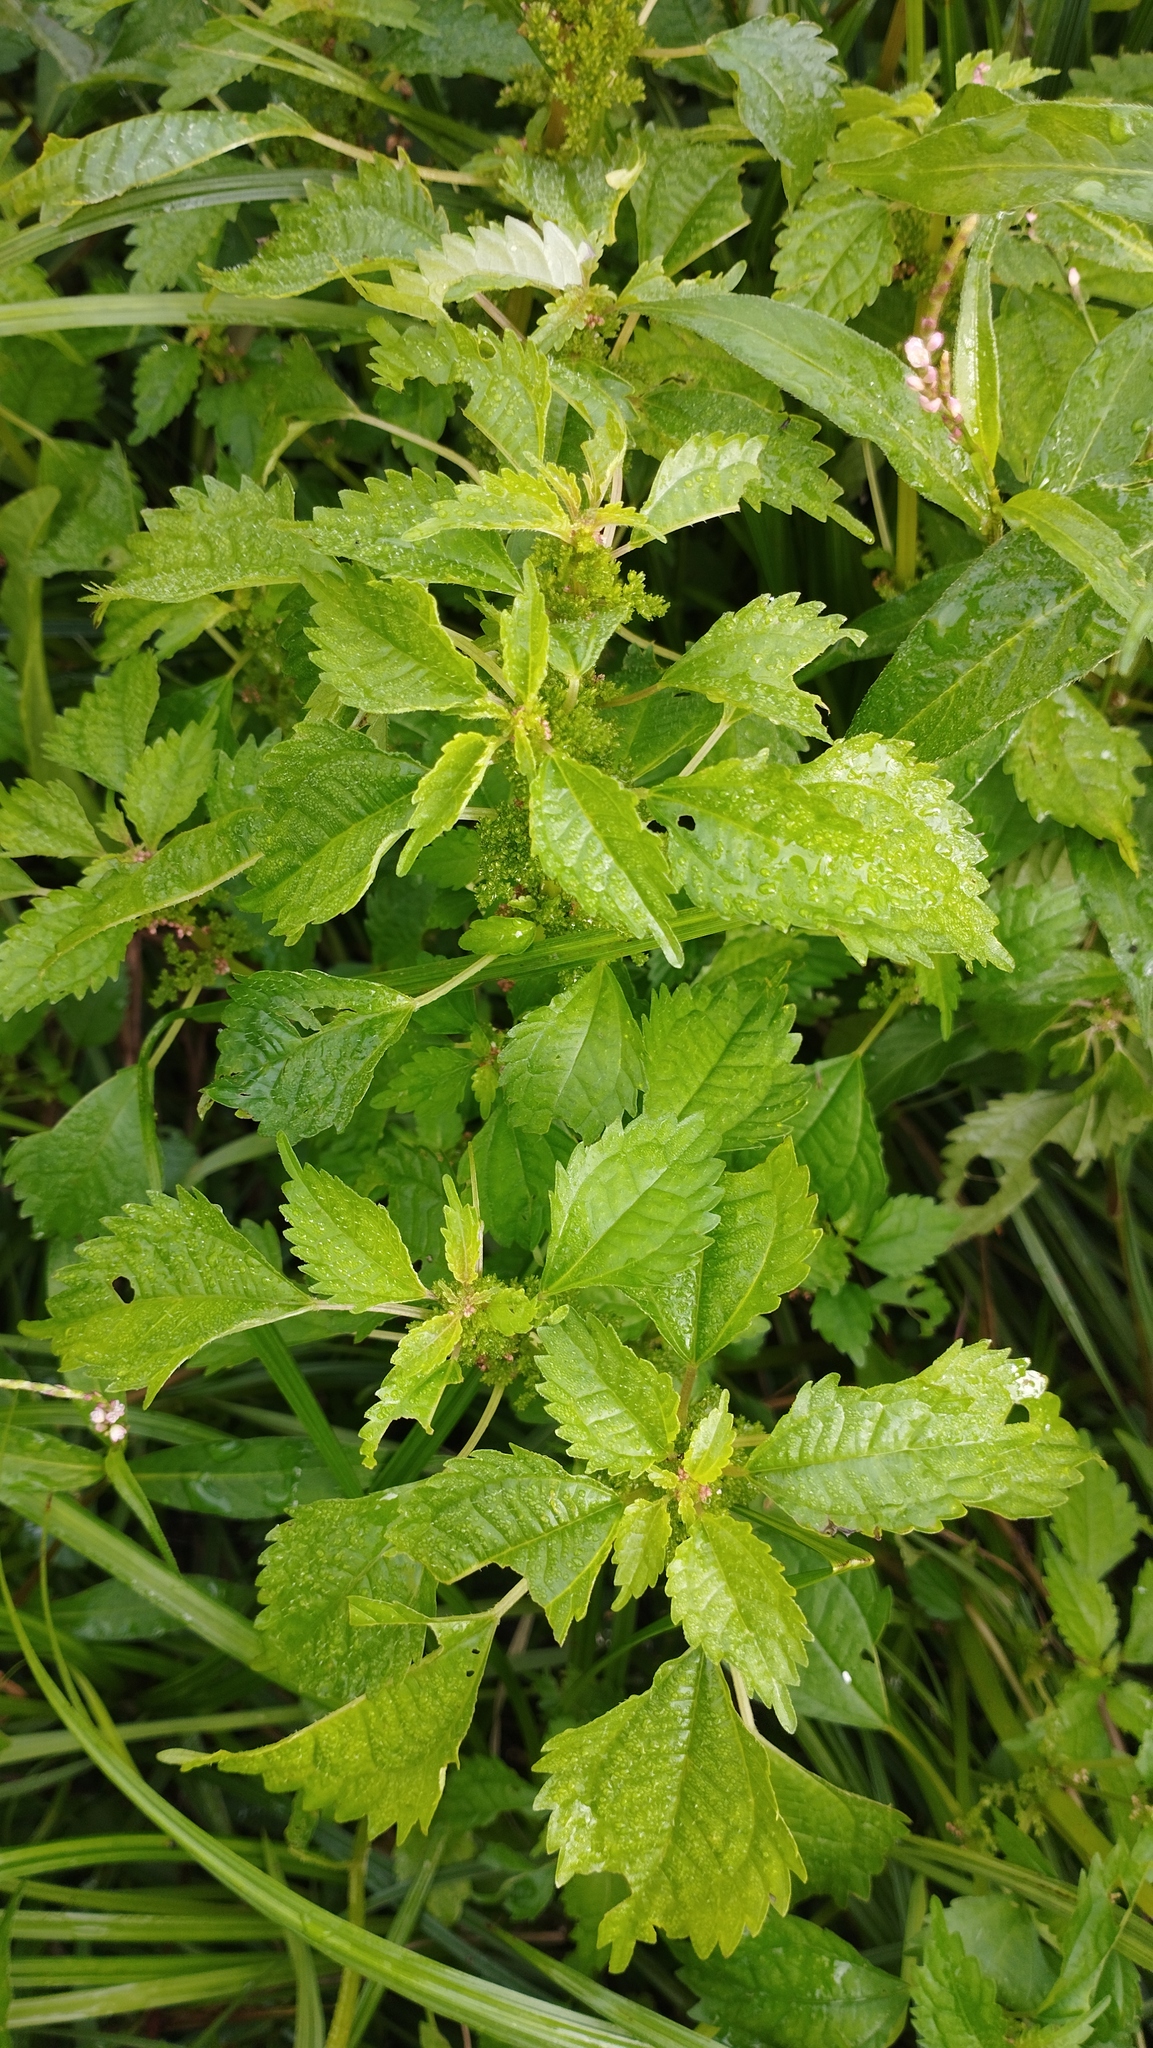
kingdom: Plantae
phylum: Tracheophyta
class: Magnoliopsida
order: Rosales
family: Urticaceae
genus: Pilea
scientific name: Pilea pumila
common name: Clearweed
